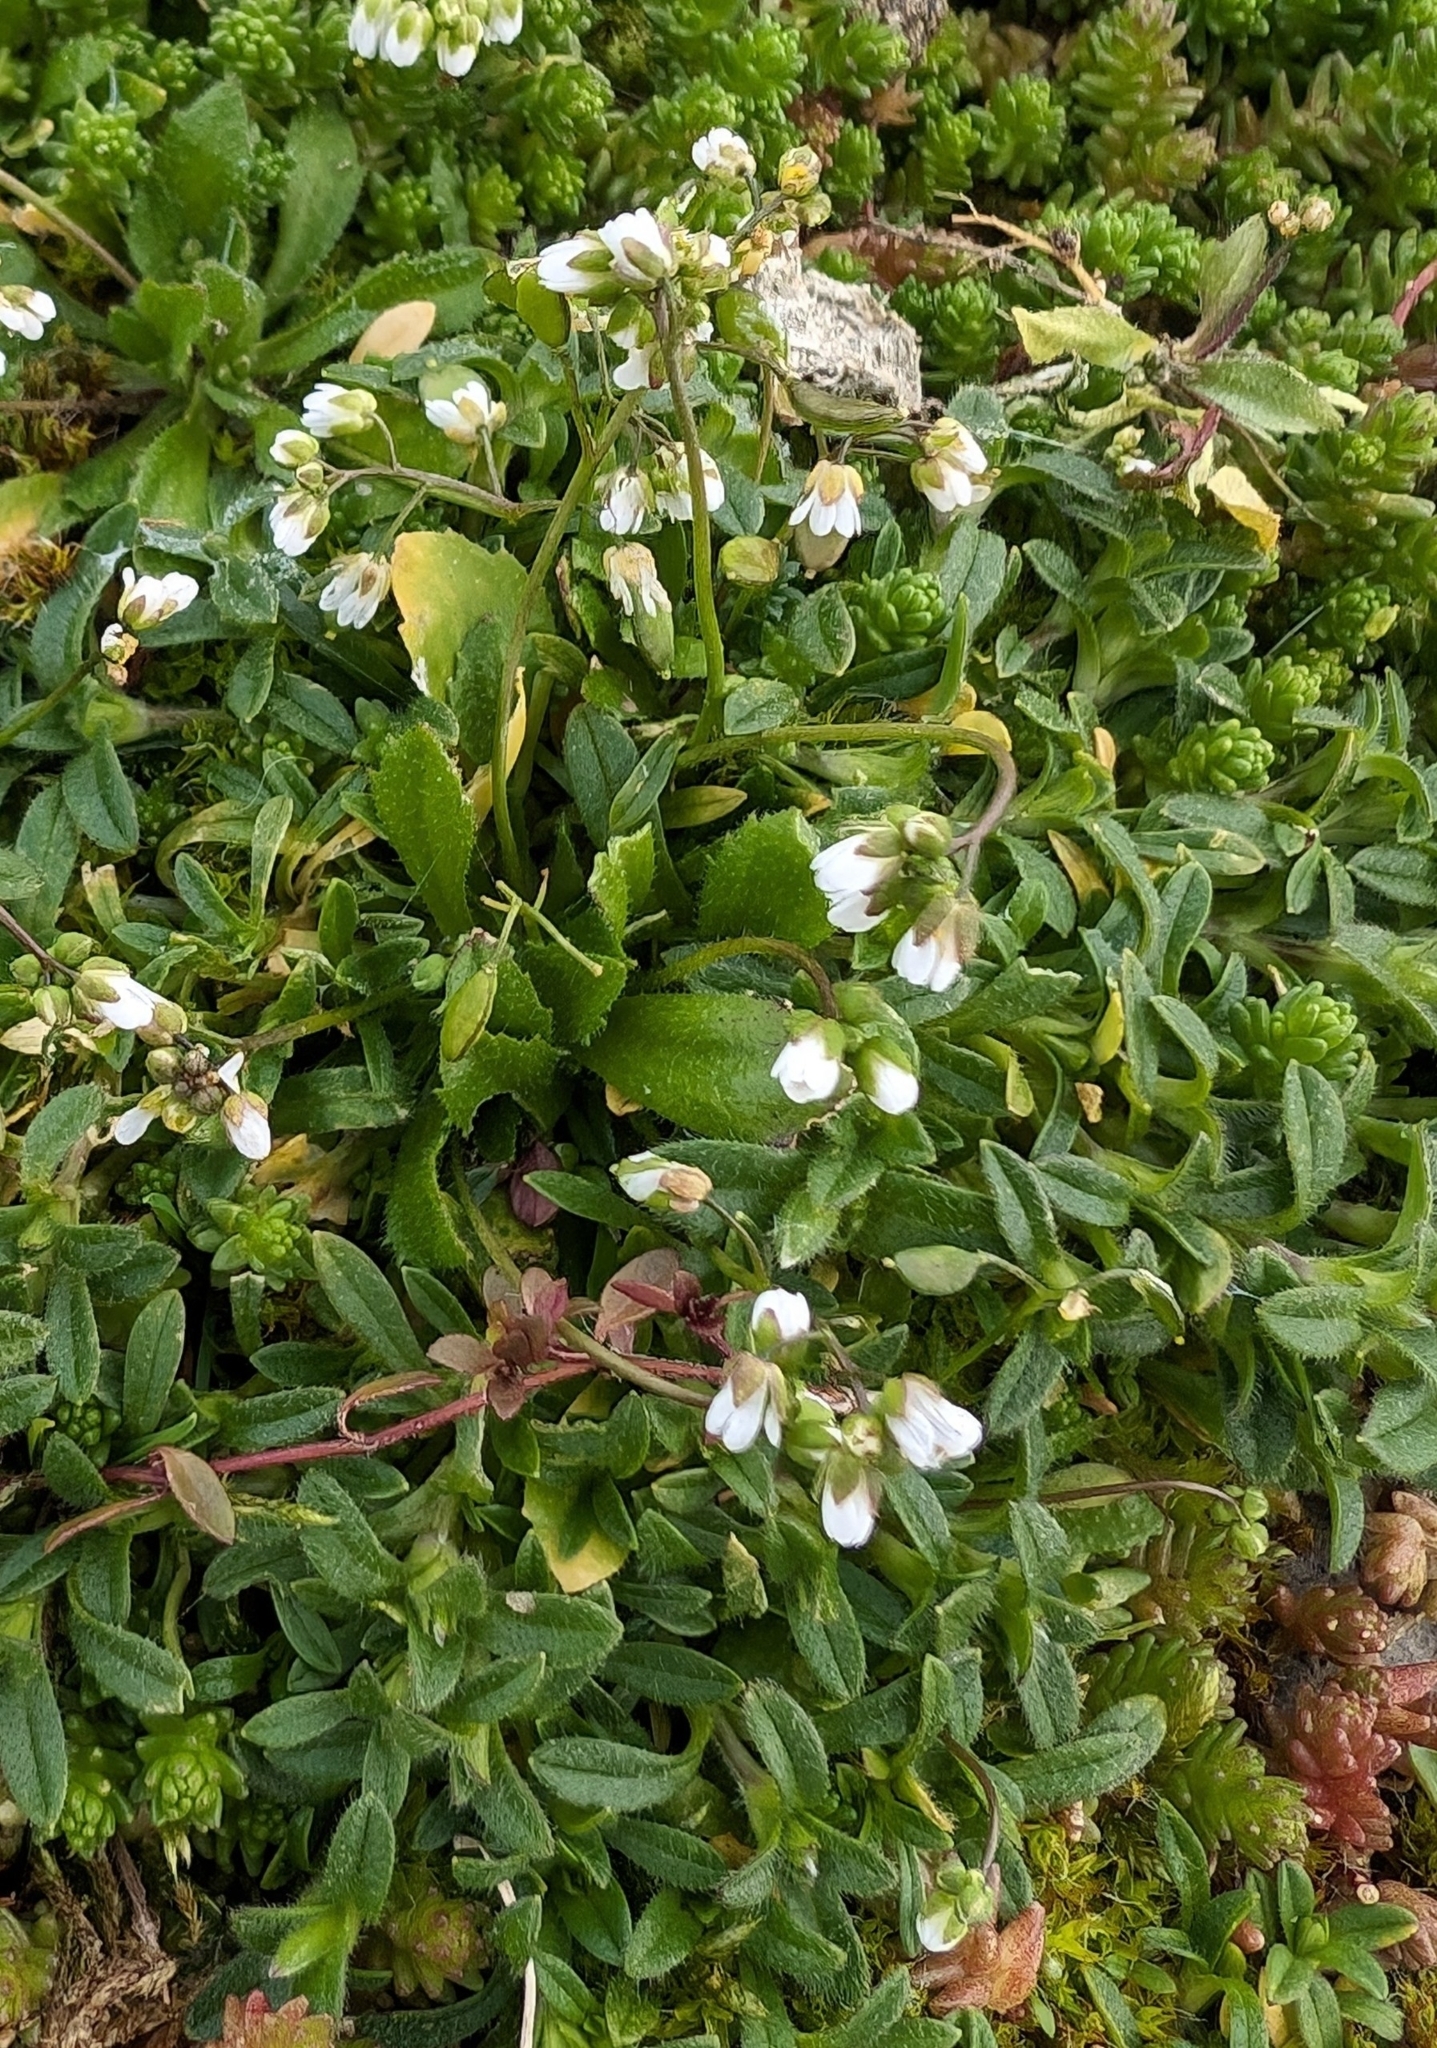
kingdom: Plantae
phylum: Tracheophyta
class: Magnoliopsida
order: Brassicales
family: Brassicaceae
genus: Draba
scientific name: Draba verna
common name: Spring draba
